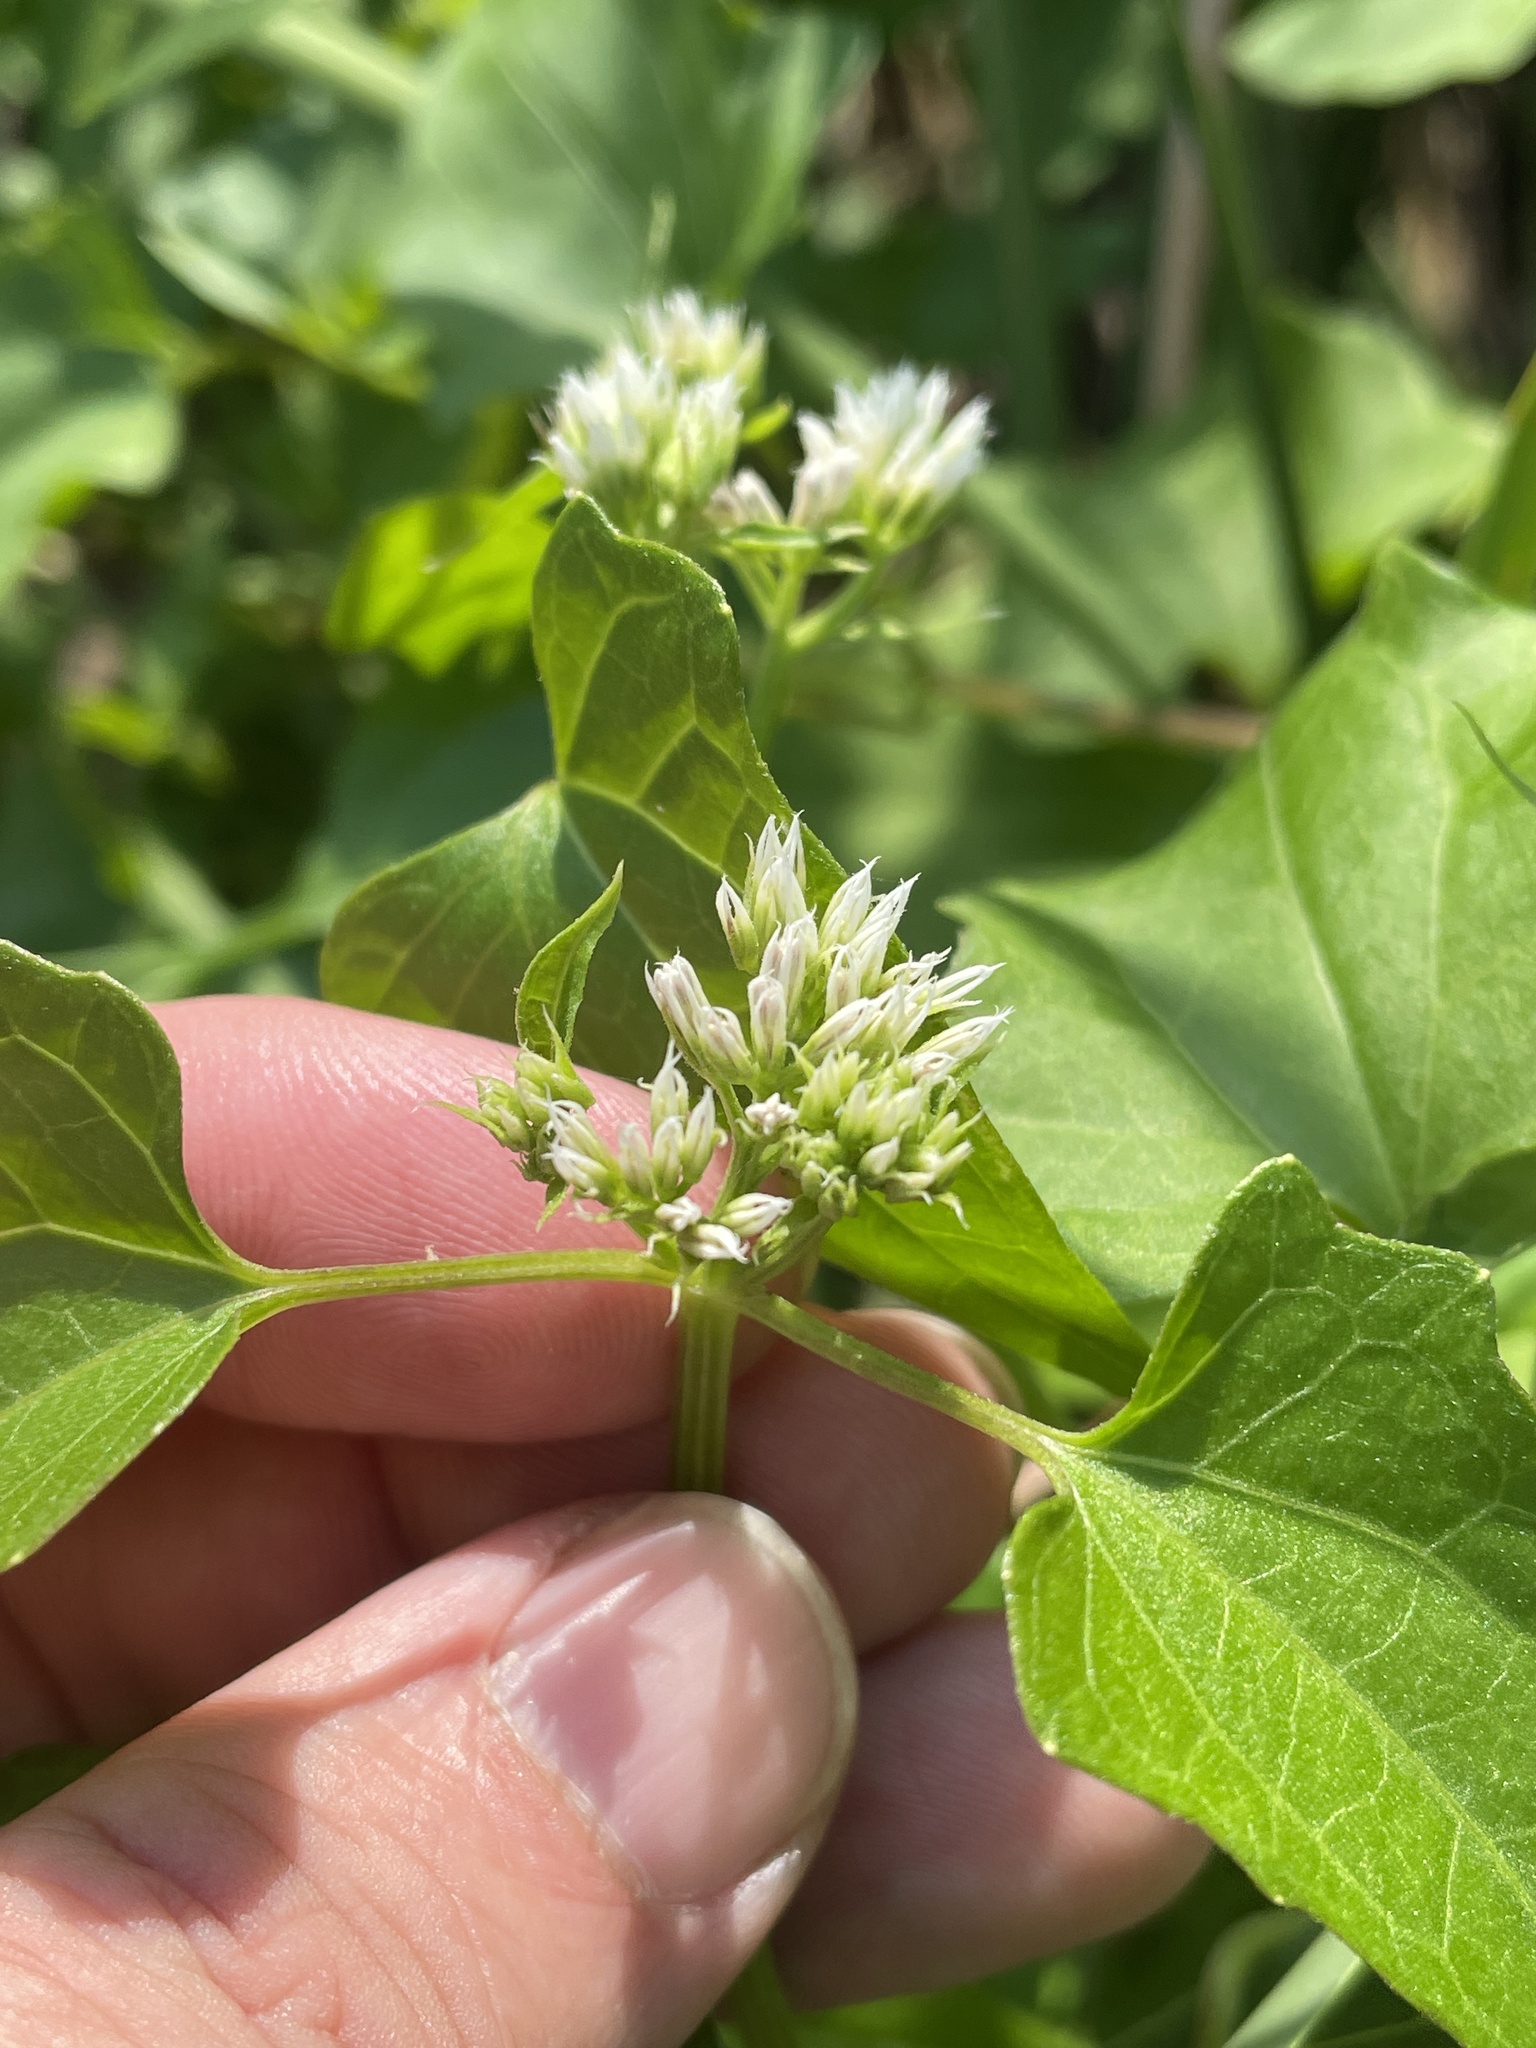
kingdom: Plantae
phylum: Tracheophyta
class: Magnoliopsida
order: Asterales
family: Asteraceae
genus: Mikania
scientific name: Mikania scandens
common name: Climbing hempvine
